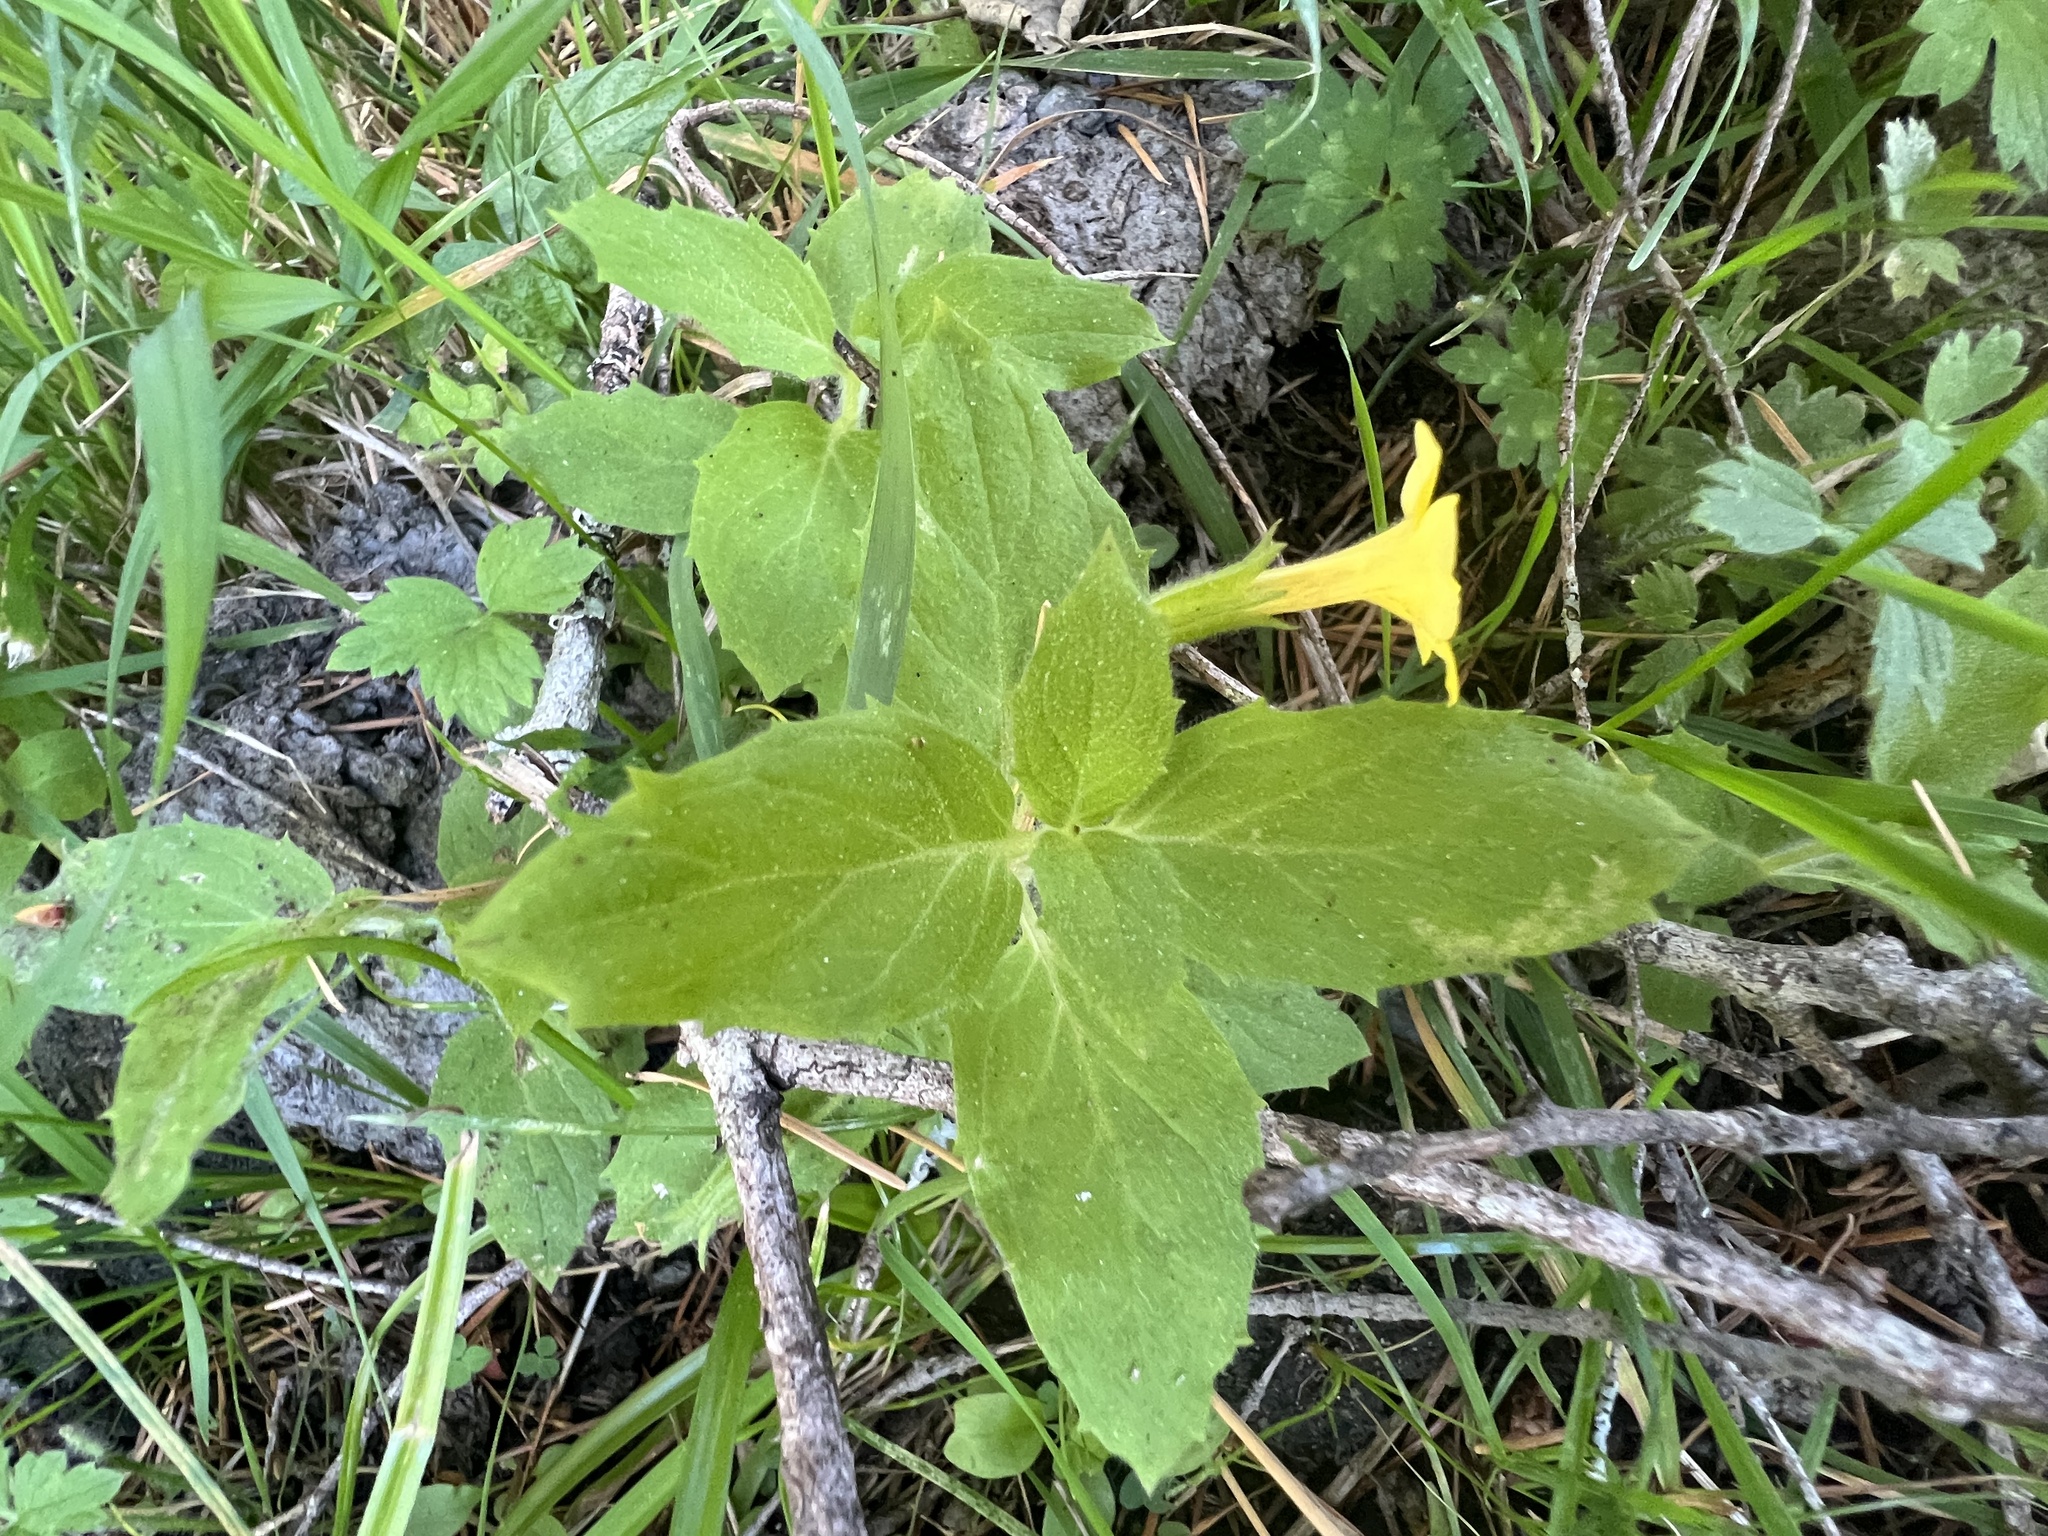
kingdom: Plantae
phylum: Tracheophyta
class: Magnoliopsida
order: Lamiales
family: Phrymaceae
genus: Erythranthe
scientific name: Erythranthe ptilota
